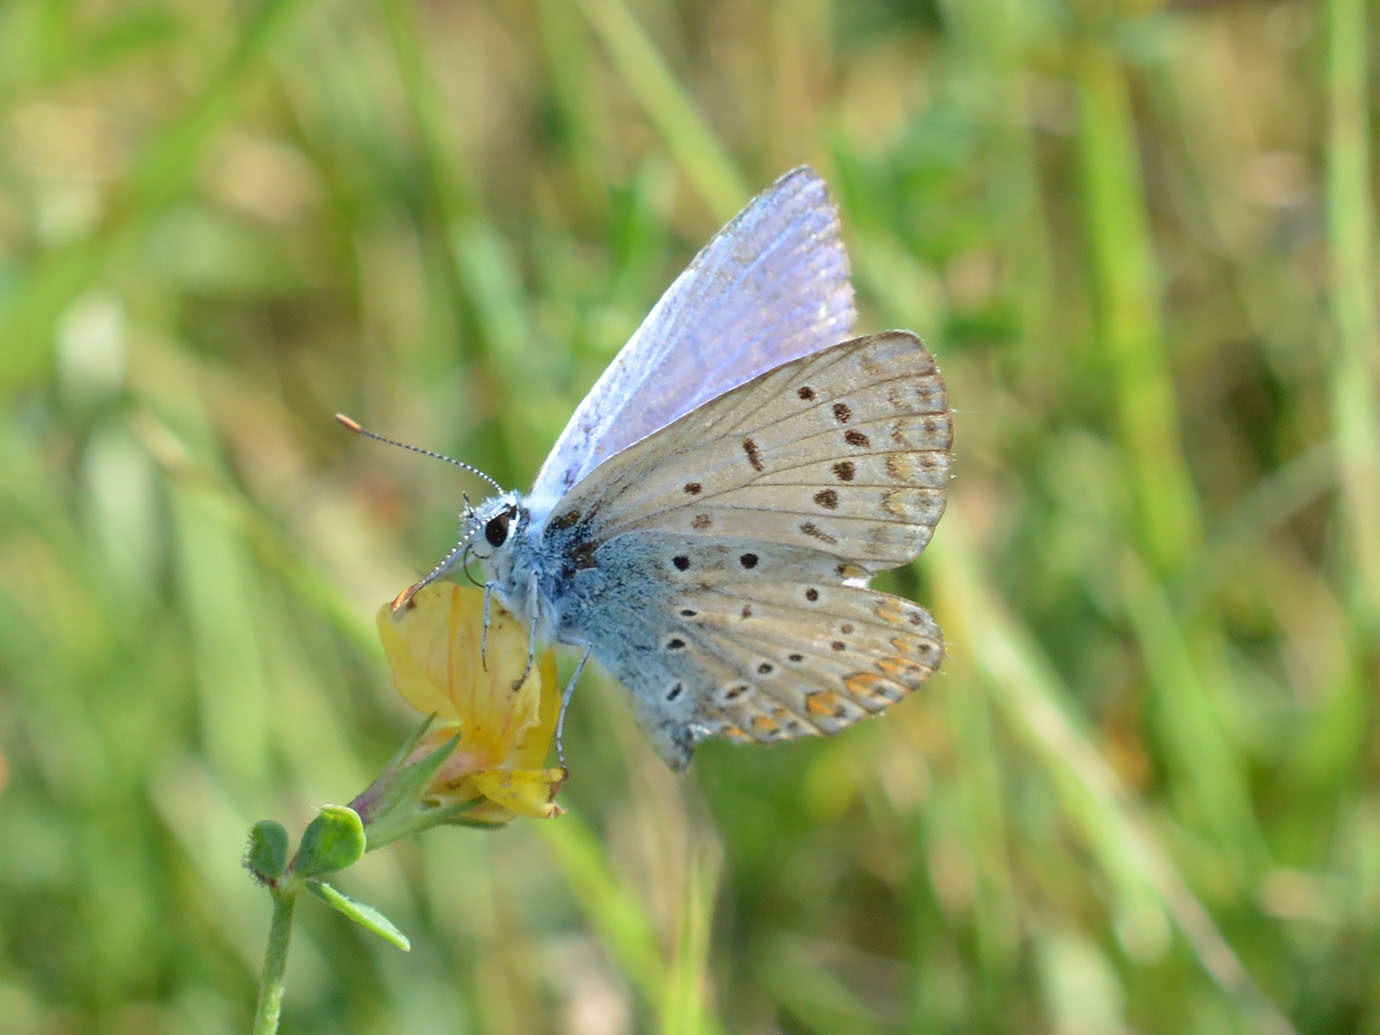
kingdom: Animalia
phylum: Arthropoda
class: Insecta
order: Lepidoptera
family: Lycaenidae
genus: Polyommatus
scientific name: Polyommatus icarus
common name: Common blue
